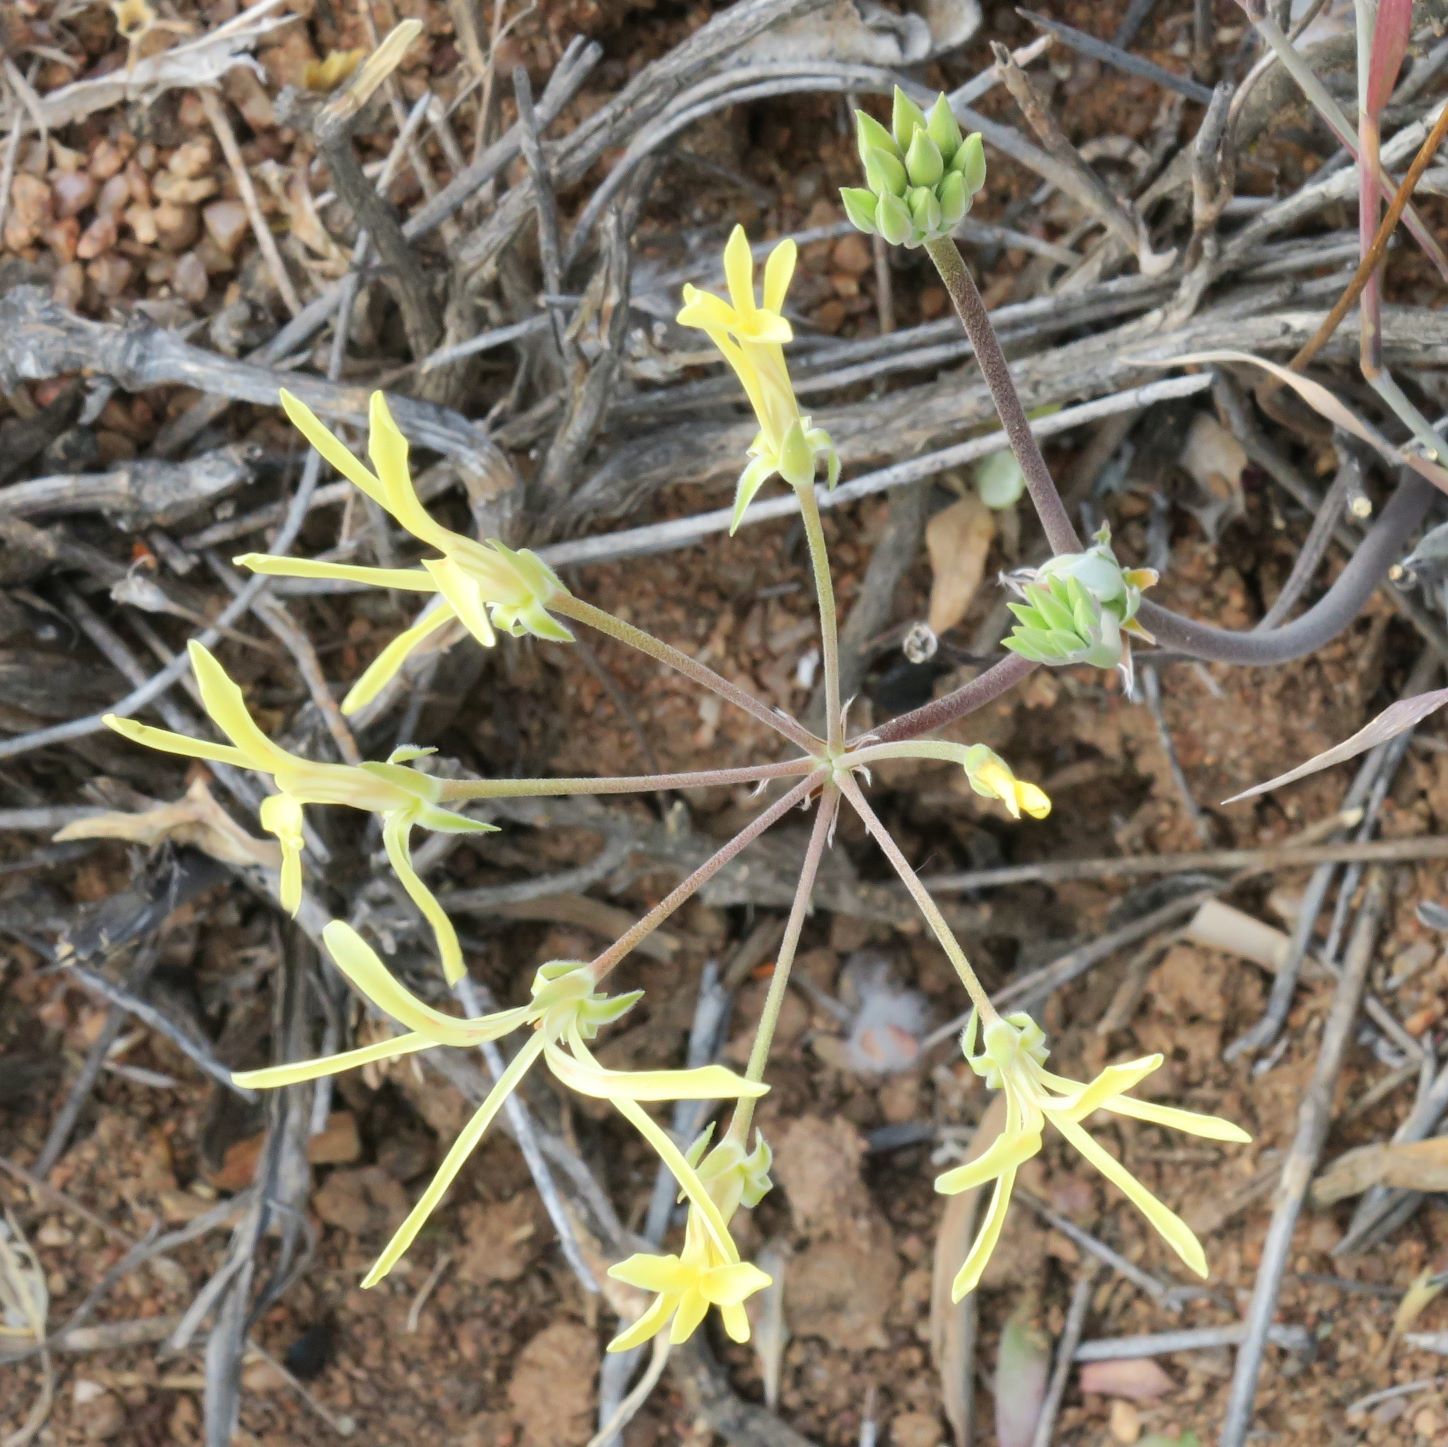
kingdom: Plantae
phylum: Tracheophyta
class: Magnoliopsida
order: Geraniales
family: Geraniaceae
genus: Pelargonium
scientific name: Pelargonium angustipetalum
